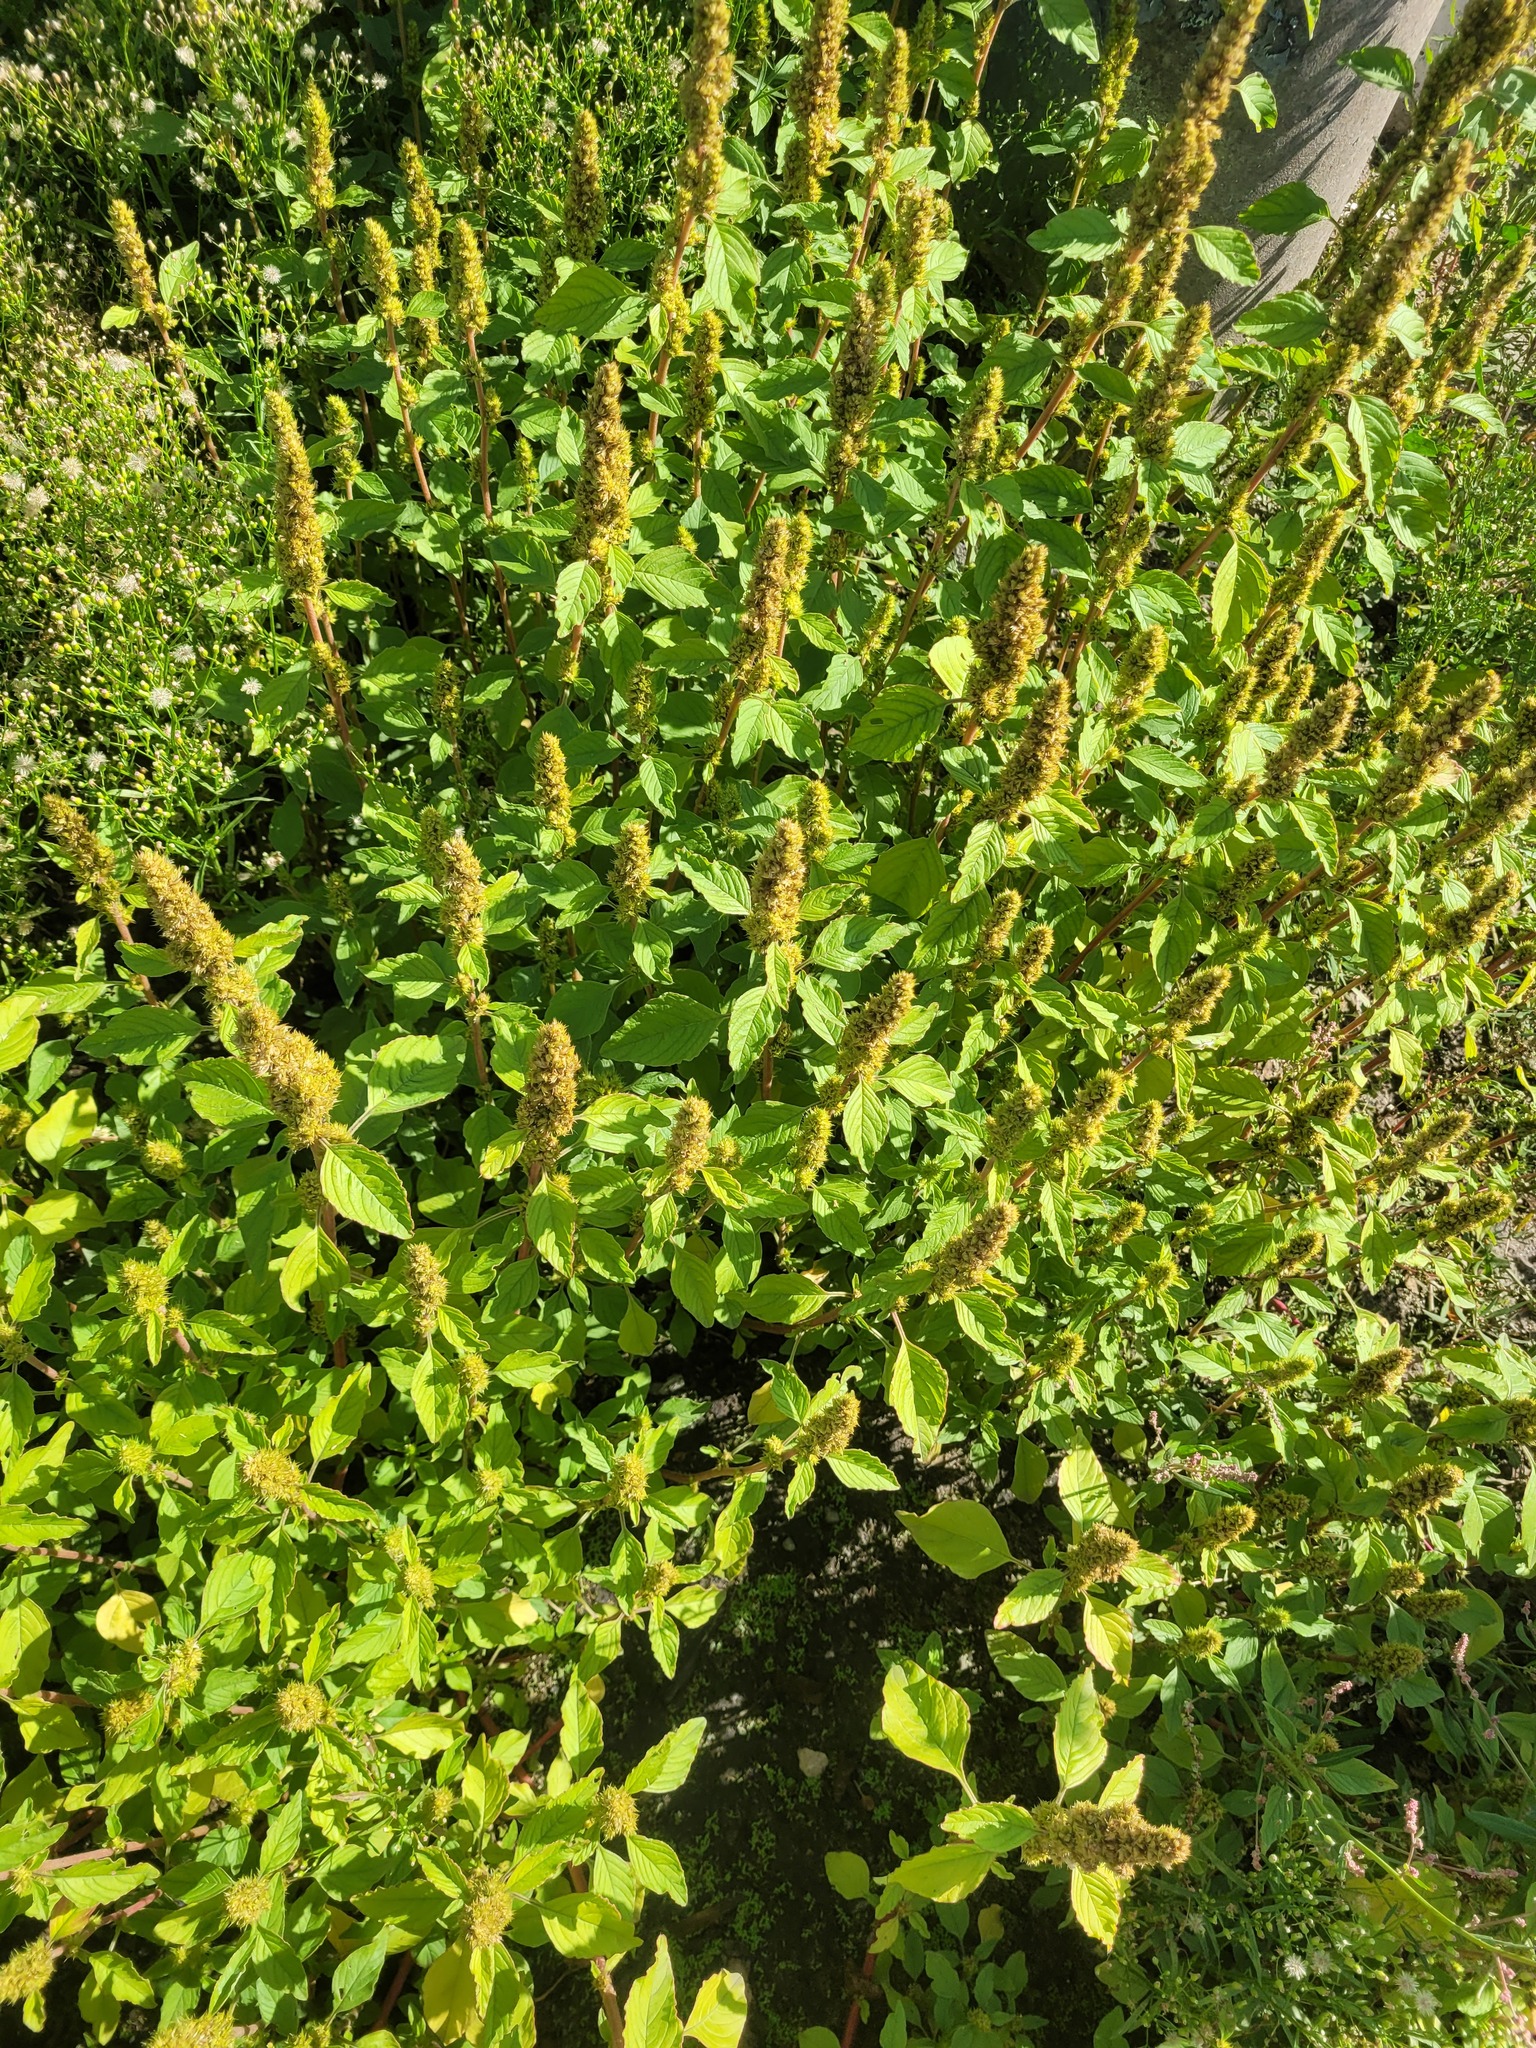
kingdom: Plantae
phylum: Tracheophyta
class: Magnoliopsida
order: Caryophyllales
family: Amaranthaceae
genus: Amaranthus
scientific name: Amaranthus retroflexus
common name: Redroot amaranth
